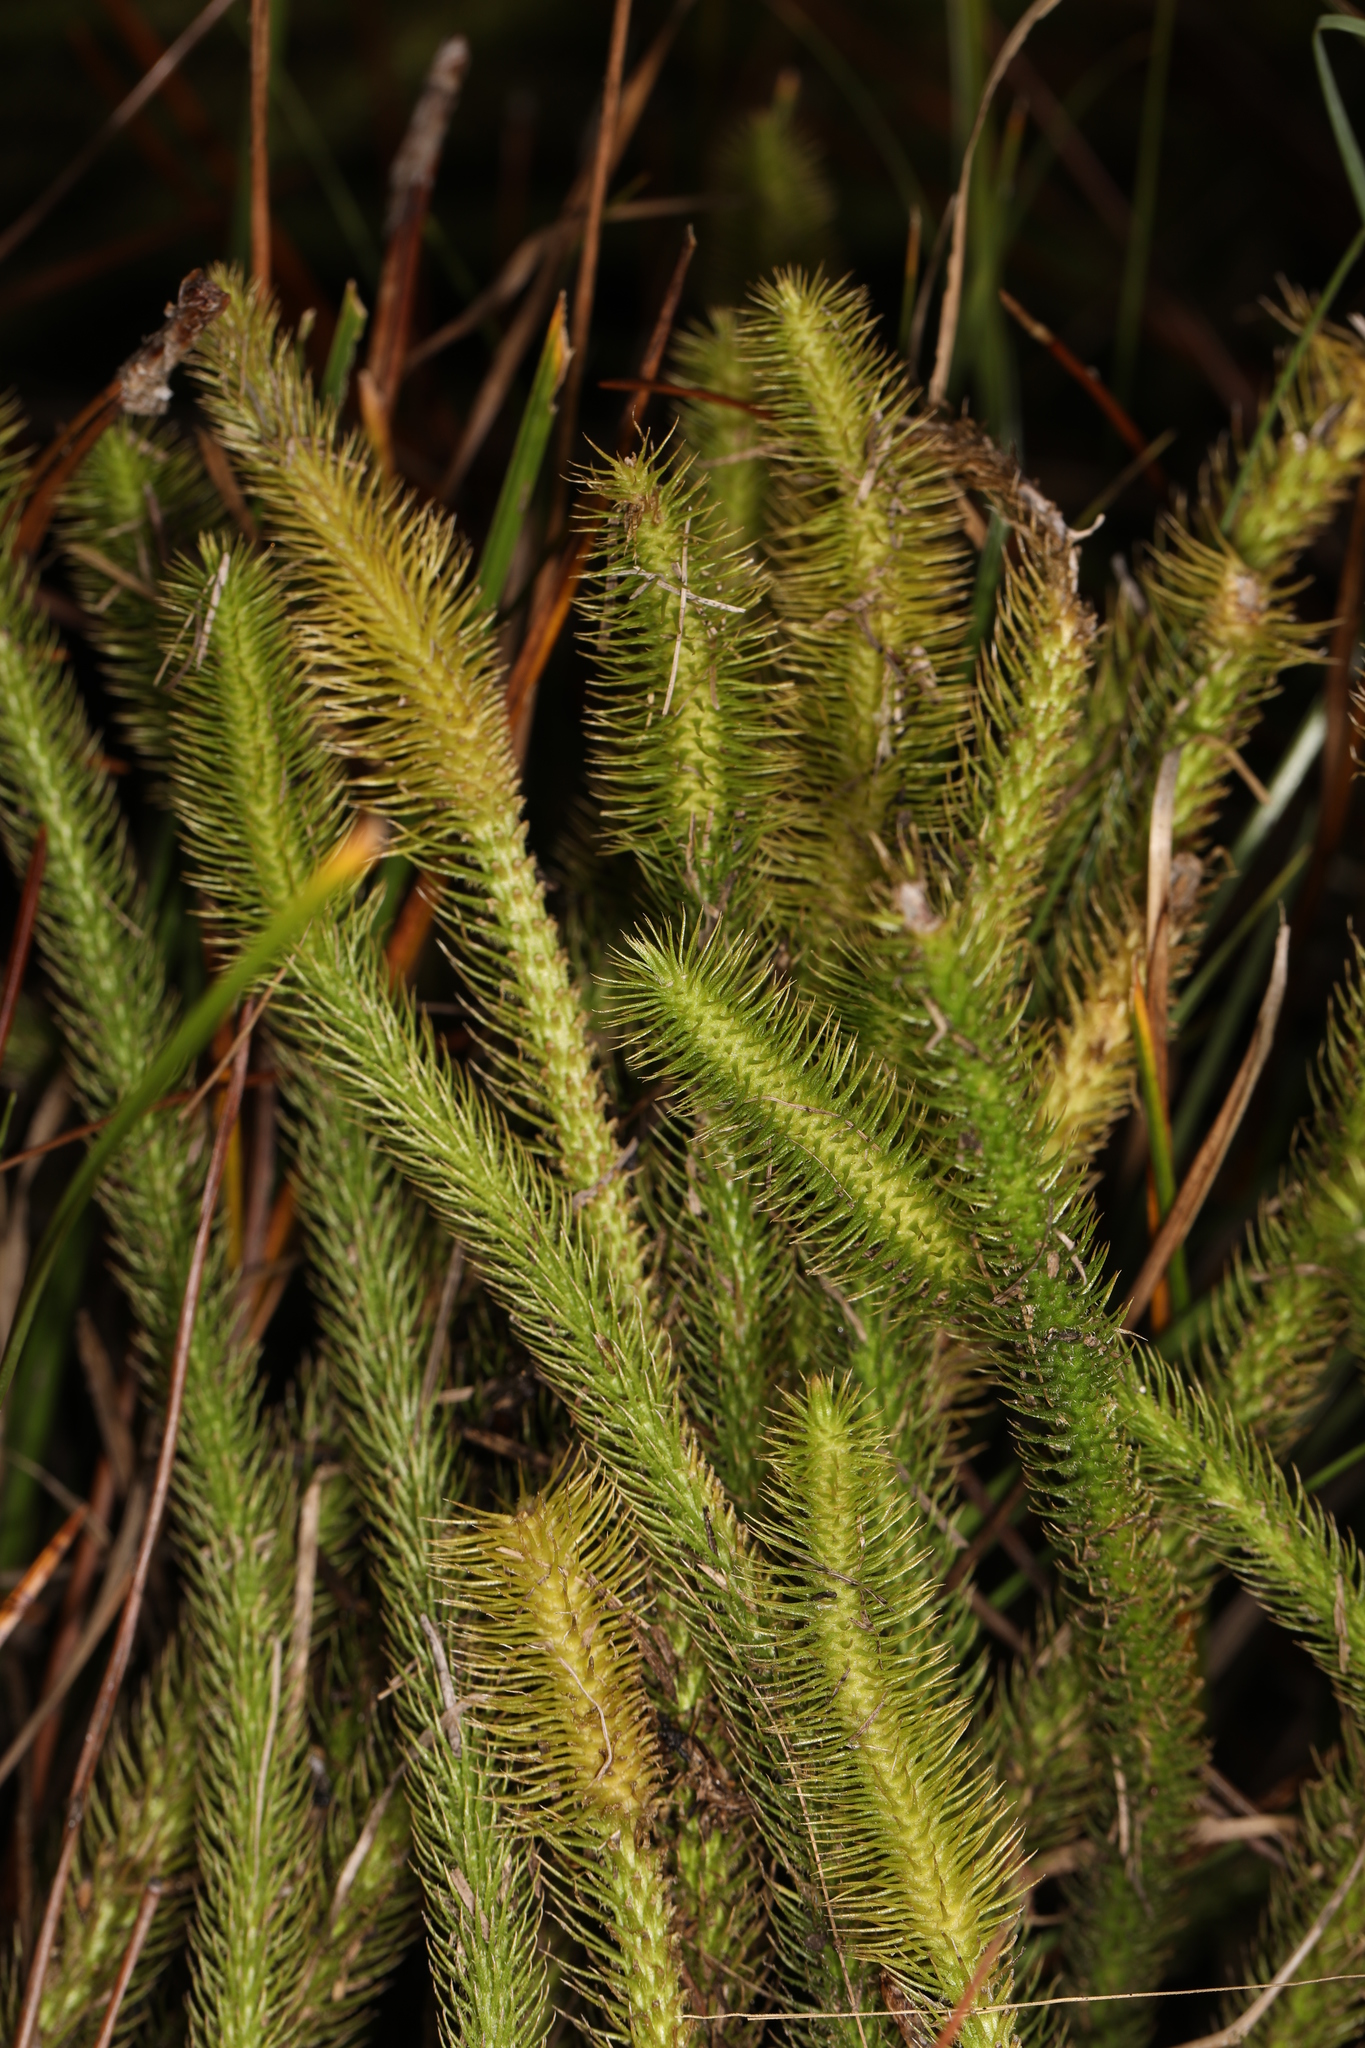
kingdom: Plantae
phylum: Tracheophyta
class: Lycopodiopsida
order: Lycopodiales
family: Lycopodiaceae
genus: Lycopodiella
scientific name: Lycopodiella alopecuroides
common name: Foxtail clubmoss
